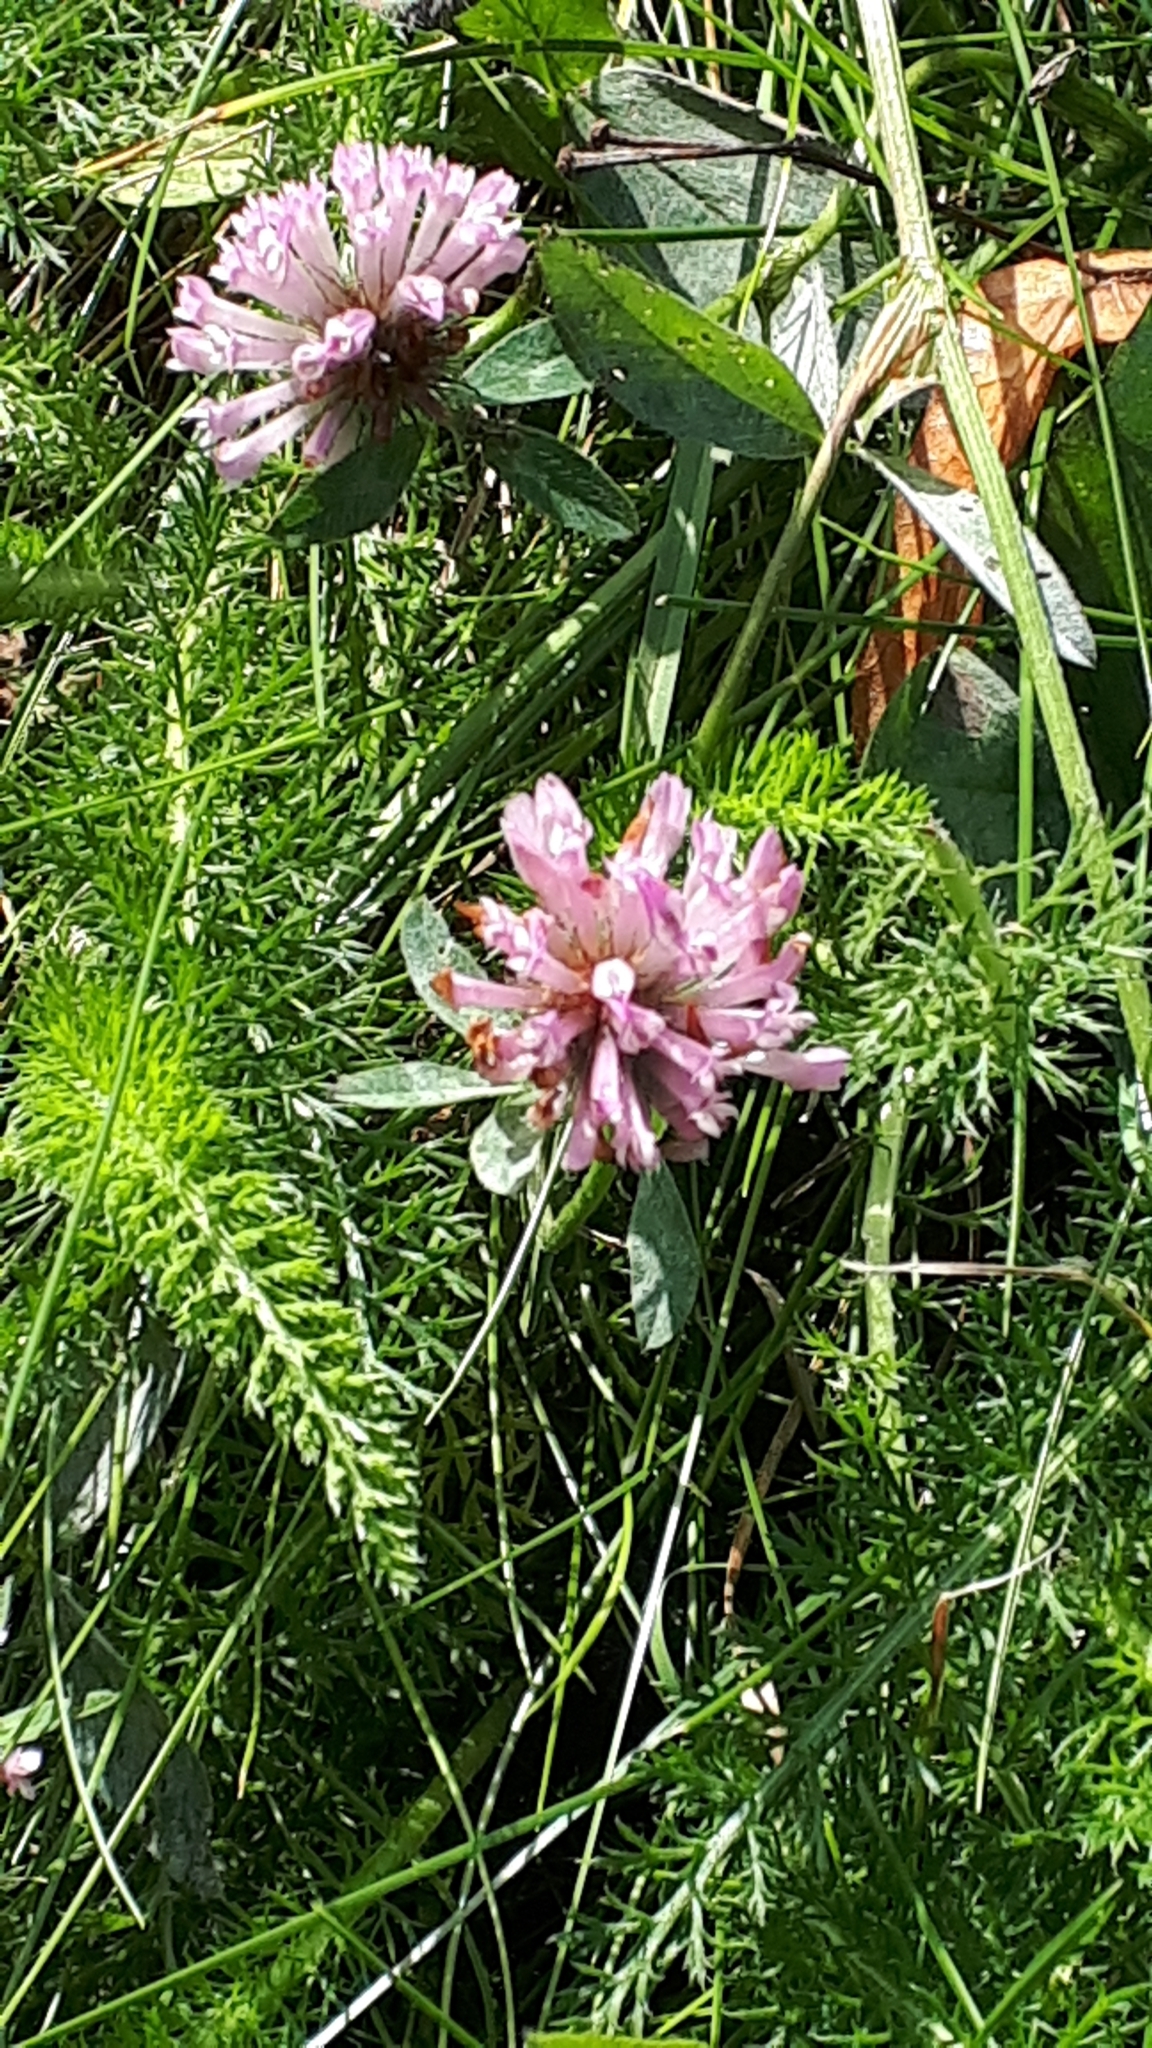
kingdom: Plantae
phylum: Tracheophyta
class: Magnoliopsida
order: Fabales
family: Fabaceae
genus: Trifolium
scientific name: Trifolium pratense
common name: Red clover
